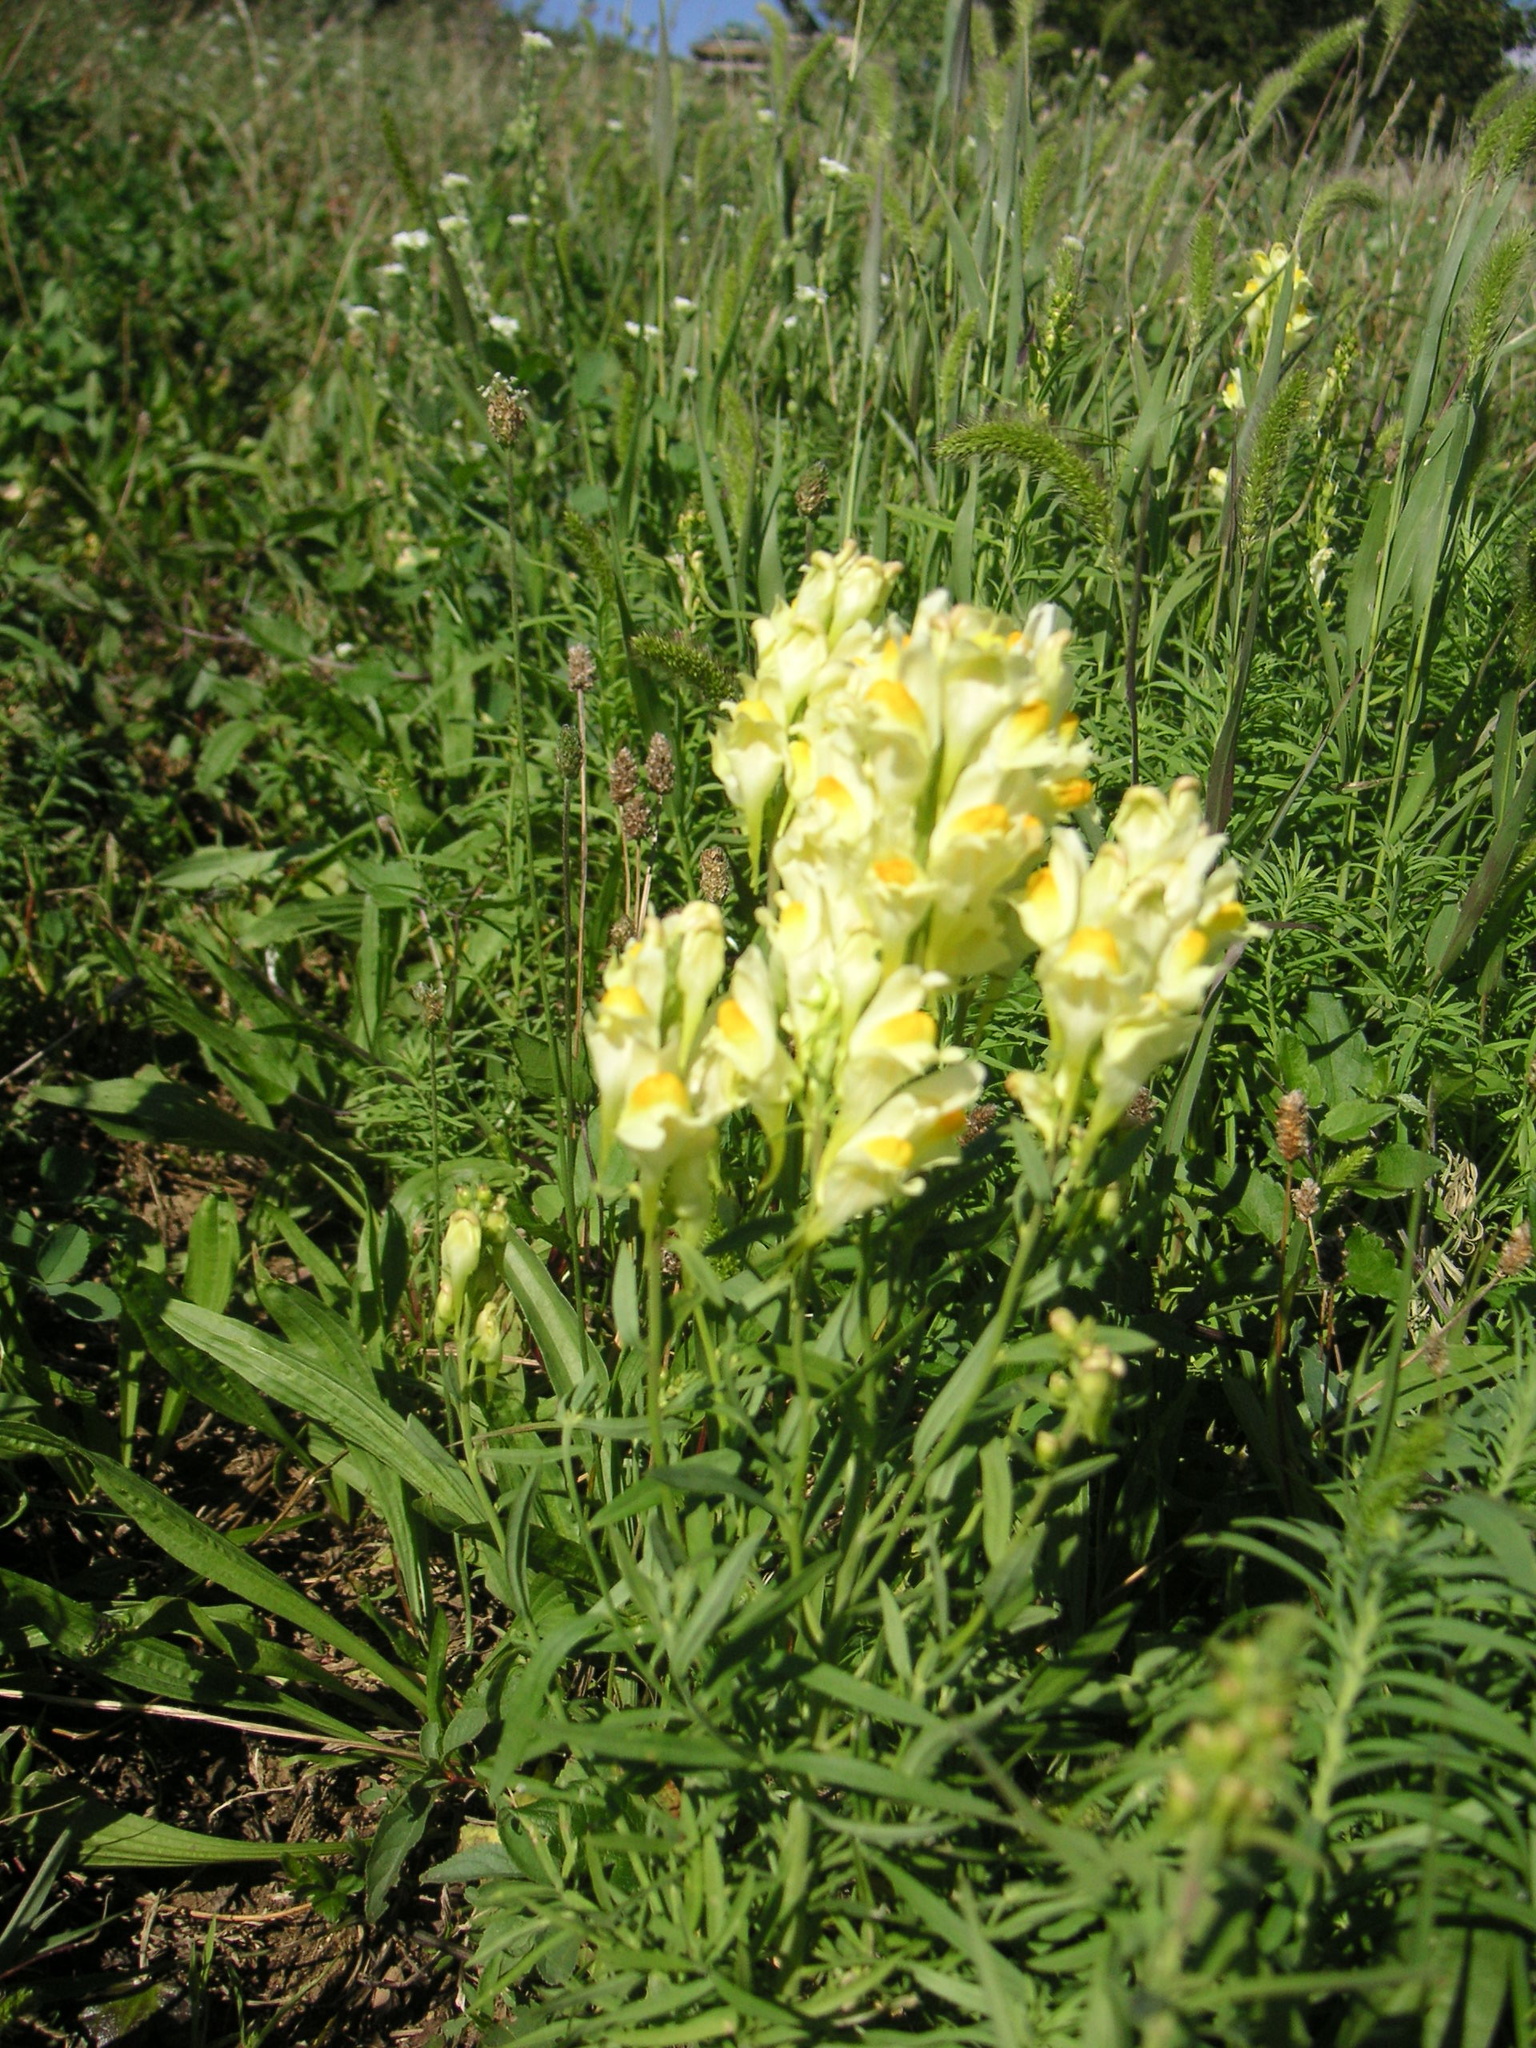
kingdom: Plantae
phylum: Tracheophyta
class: Magnoliopsida
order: Lamiales
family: Plantaginaceae
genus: Linaria
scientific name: Linaria vulgaris
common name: Butter and eggs
